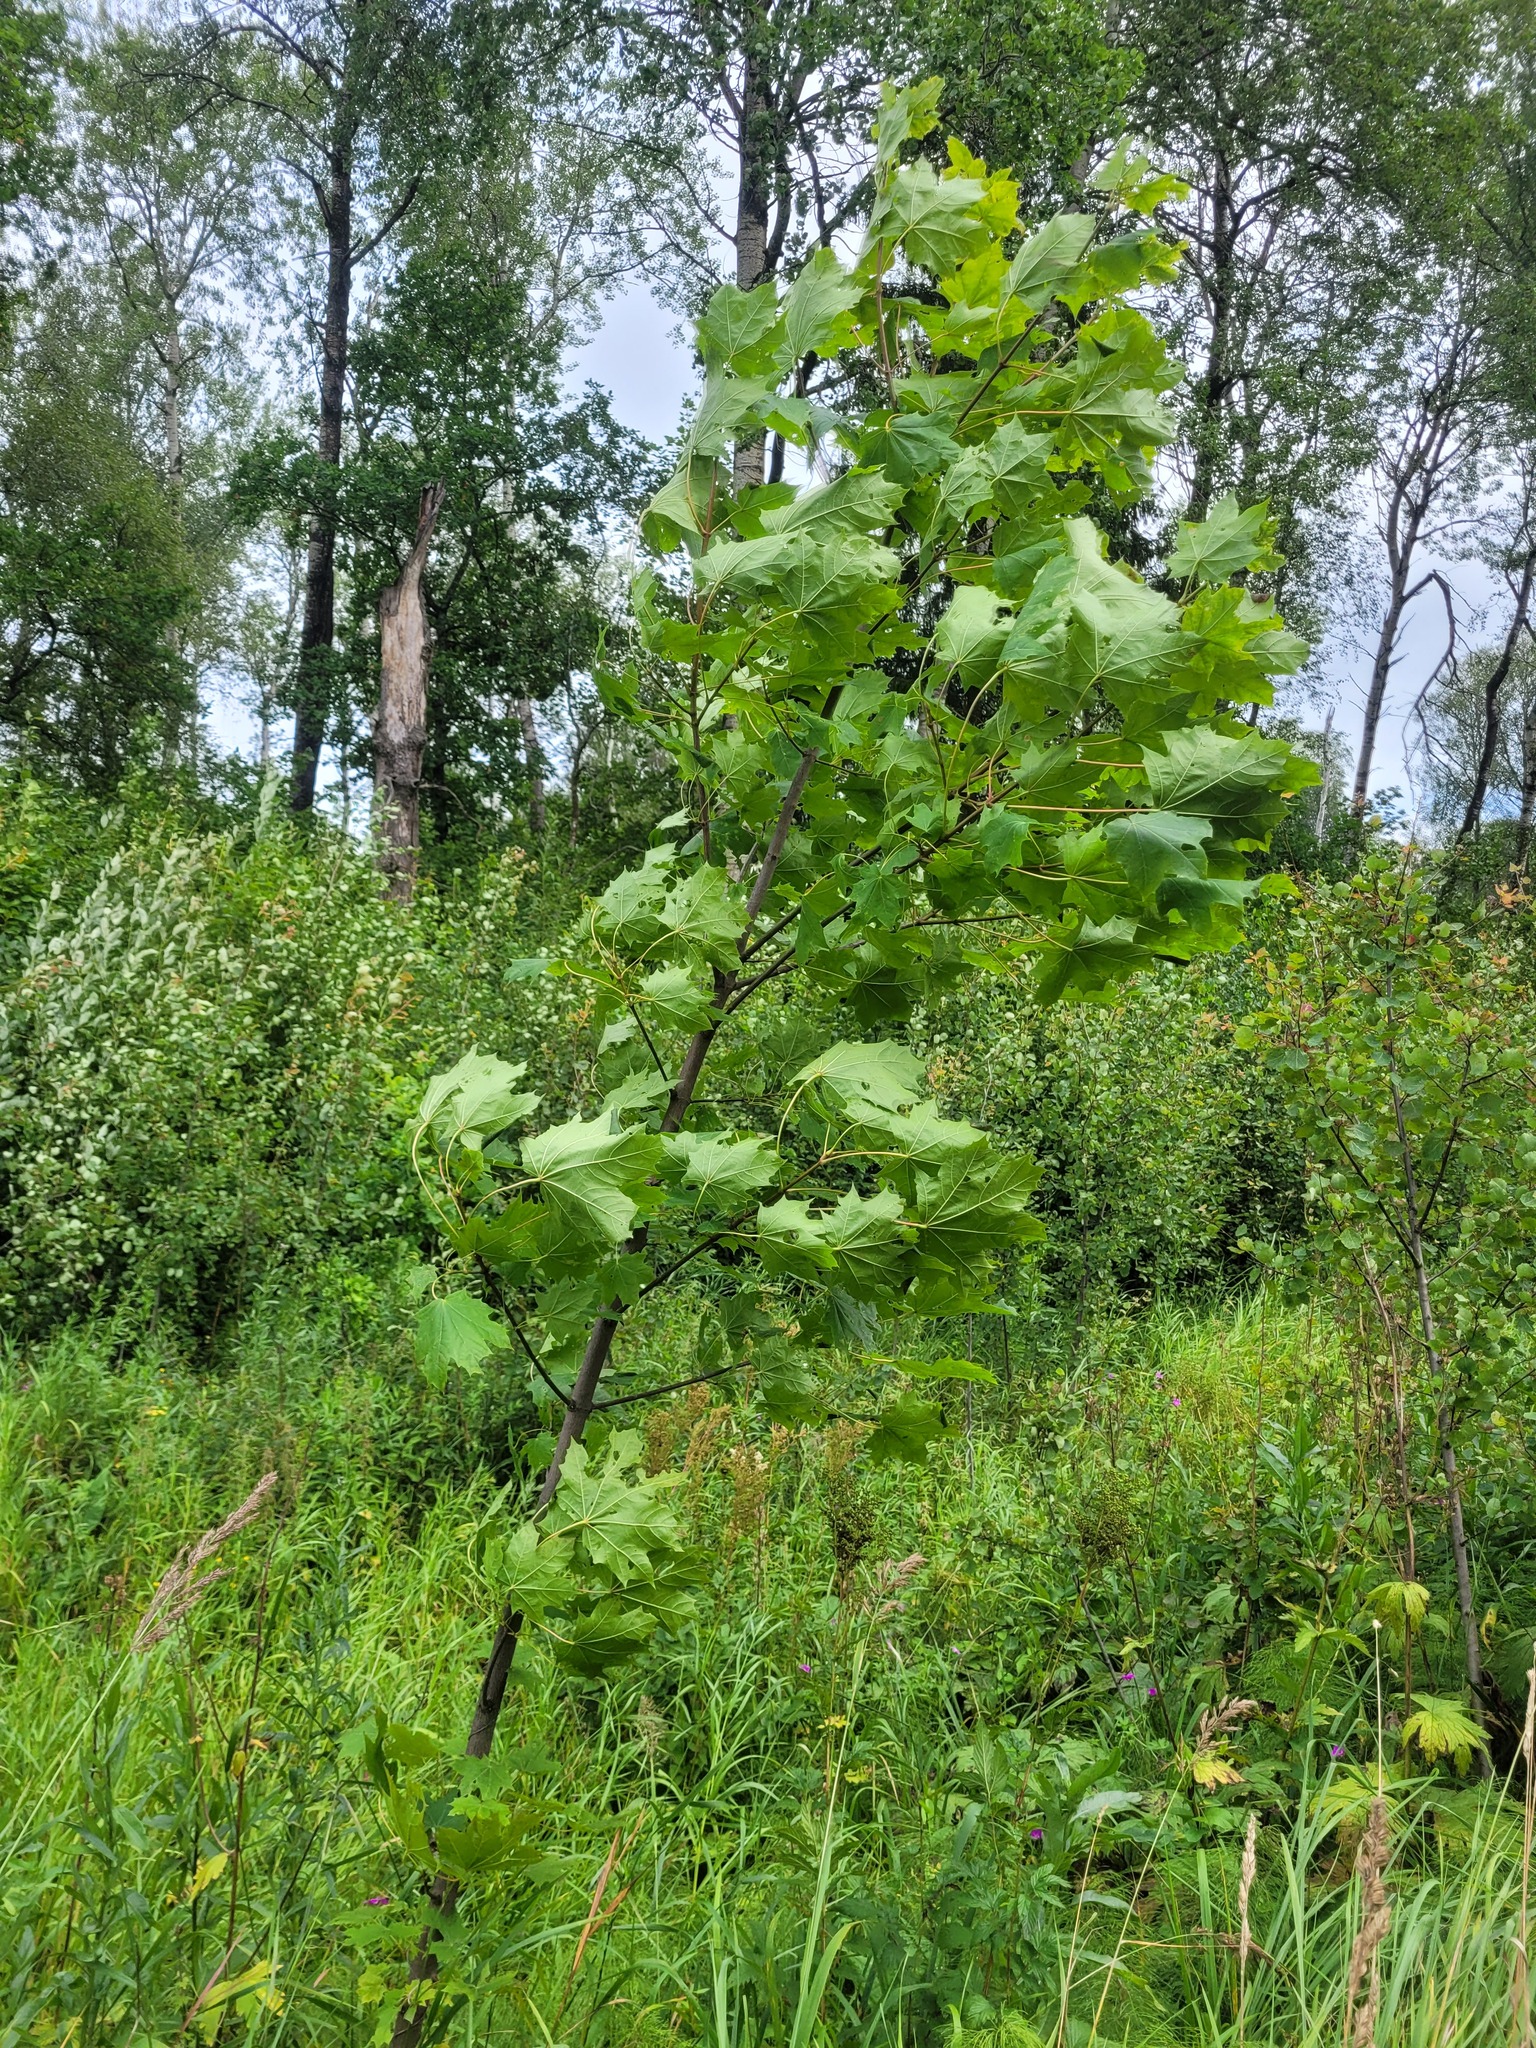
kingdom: Plantae
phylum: Tracheophyta
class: Magnoliopsida
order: Sapindales
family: Sapindaceae
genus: Acer
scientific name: Acer platanoides
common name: Norway maple
